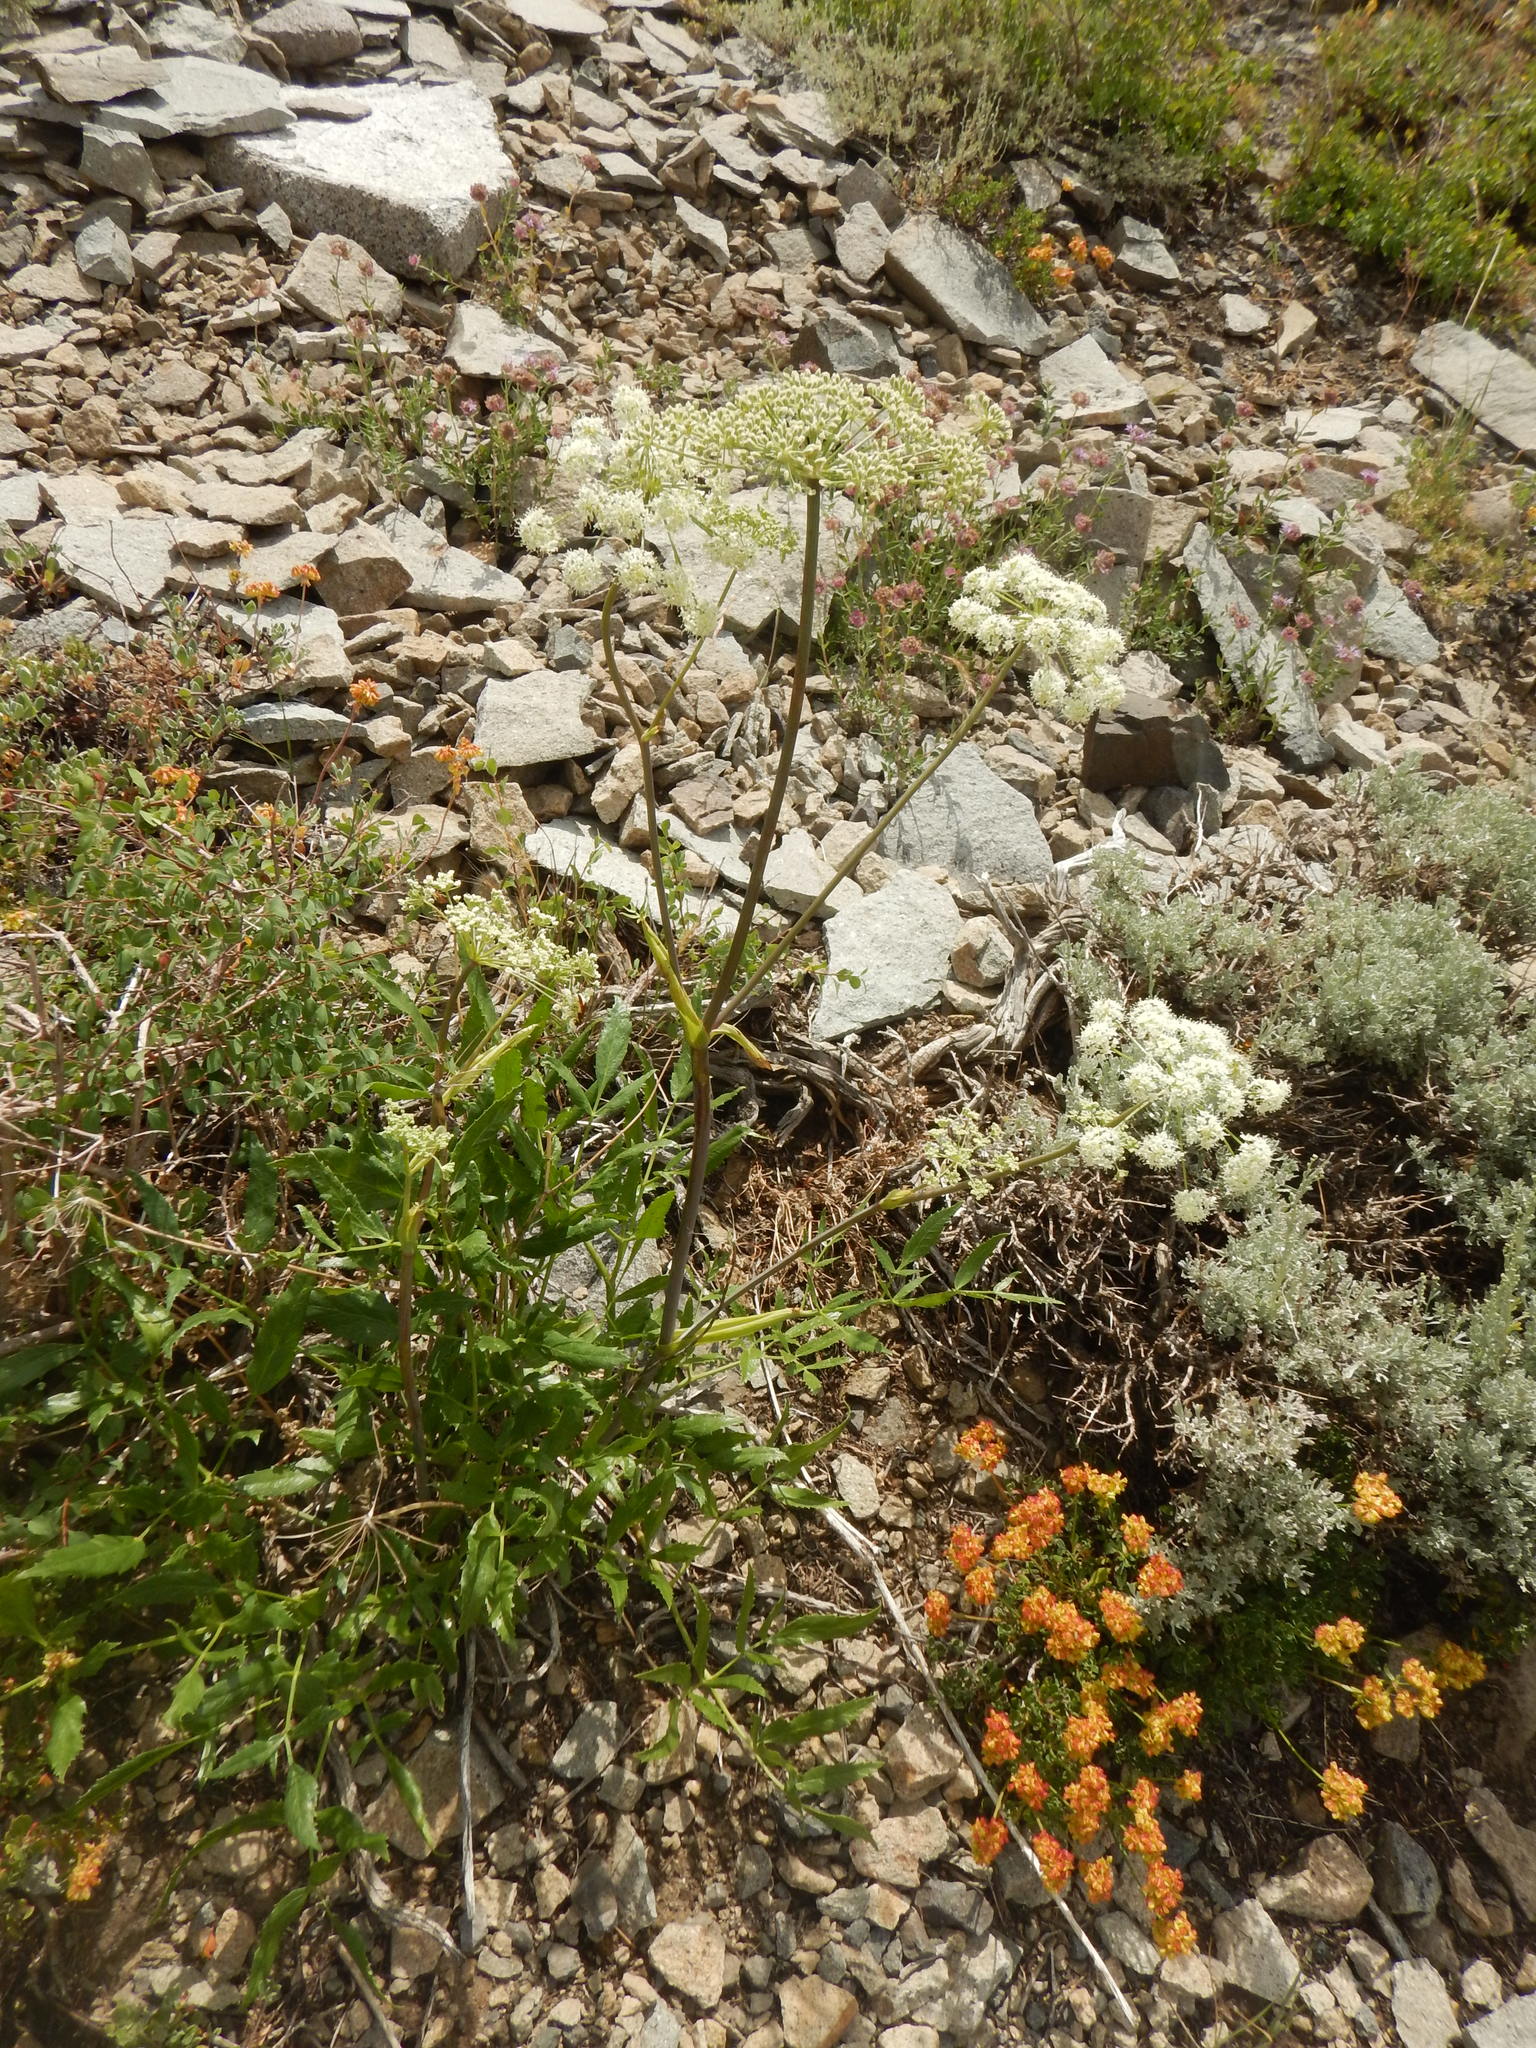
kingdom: Plantae
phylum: Tracheophyta
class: Magnoliopsida
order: Apiales
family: Apiaceae
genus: Angelica
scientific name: Angelica breweri
